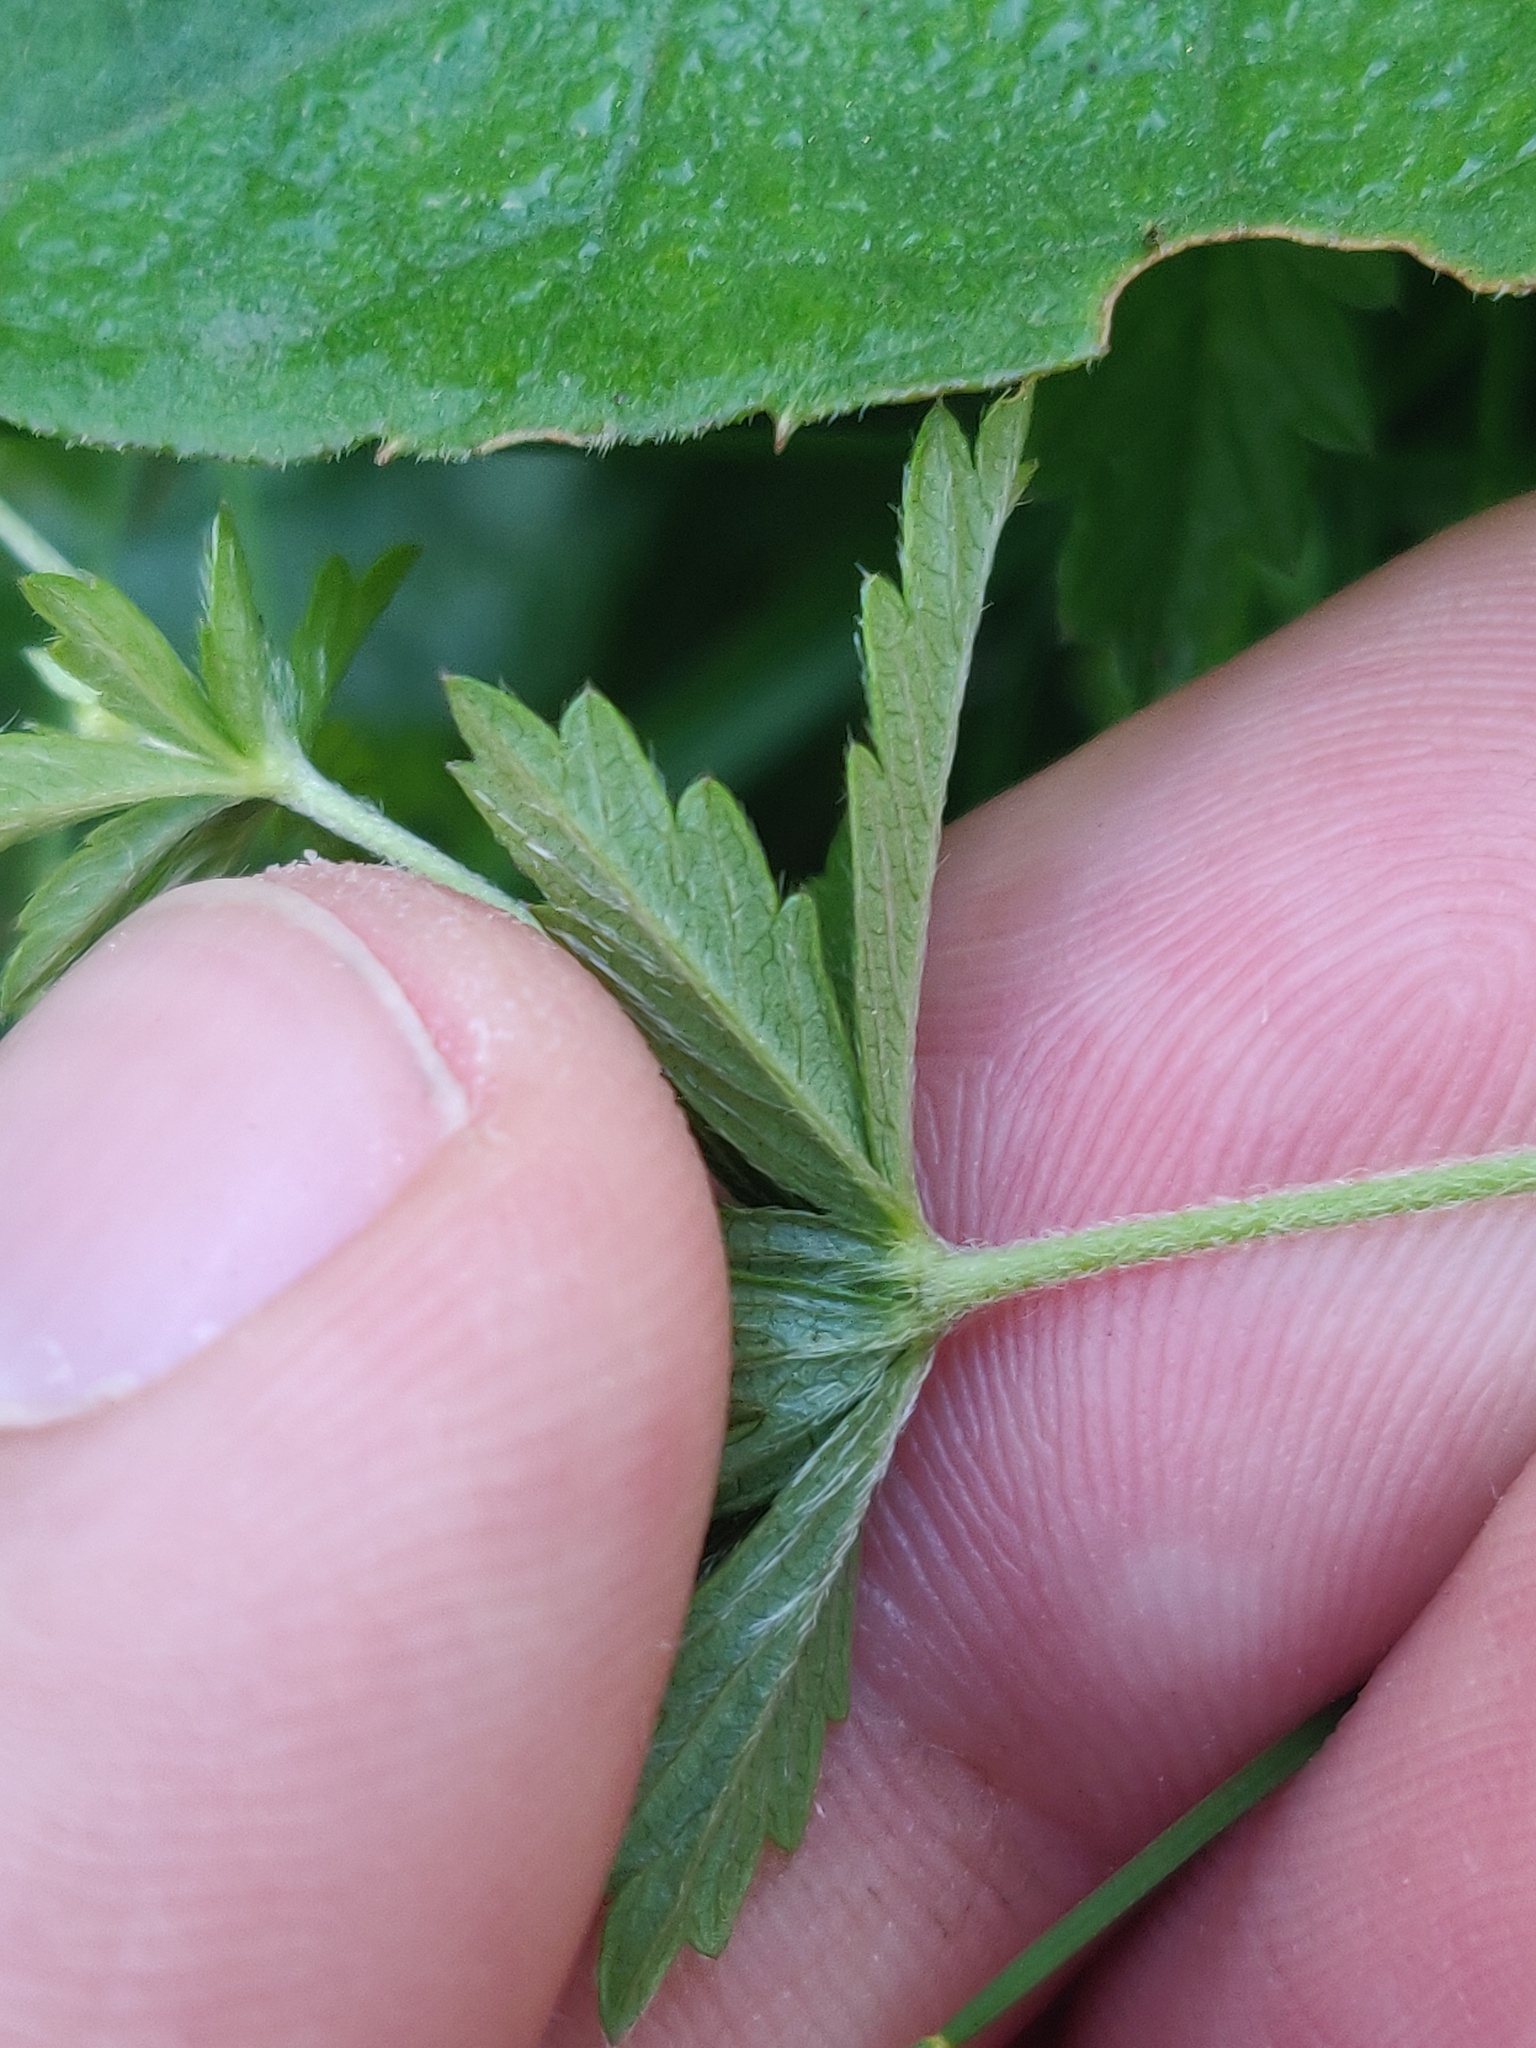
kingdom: Plantae
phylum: Tracheophyta
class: Magnoliopsida
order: Rosales
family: Rosaceae
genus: Potentilla
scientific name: Potentilla erecta
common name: Tormentil
